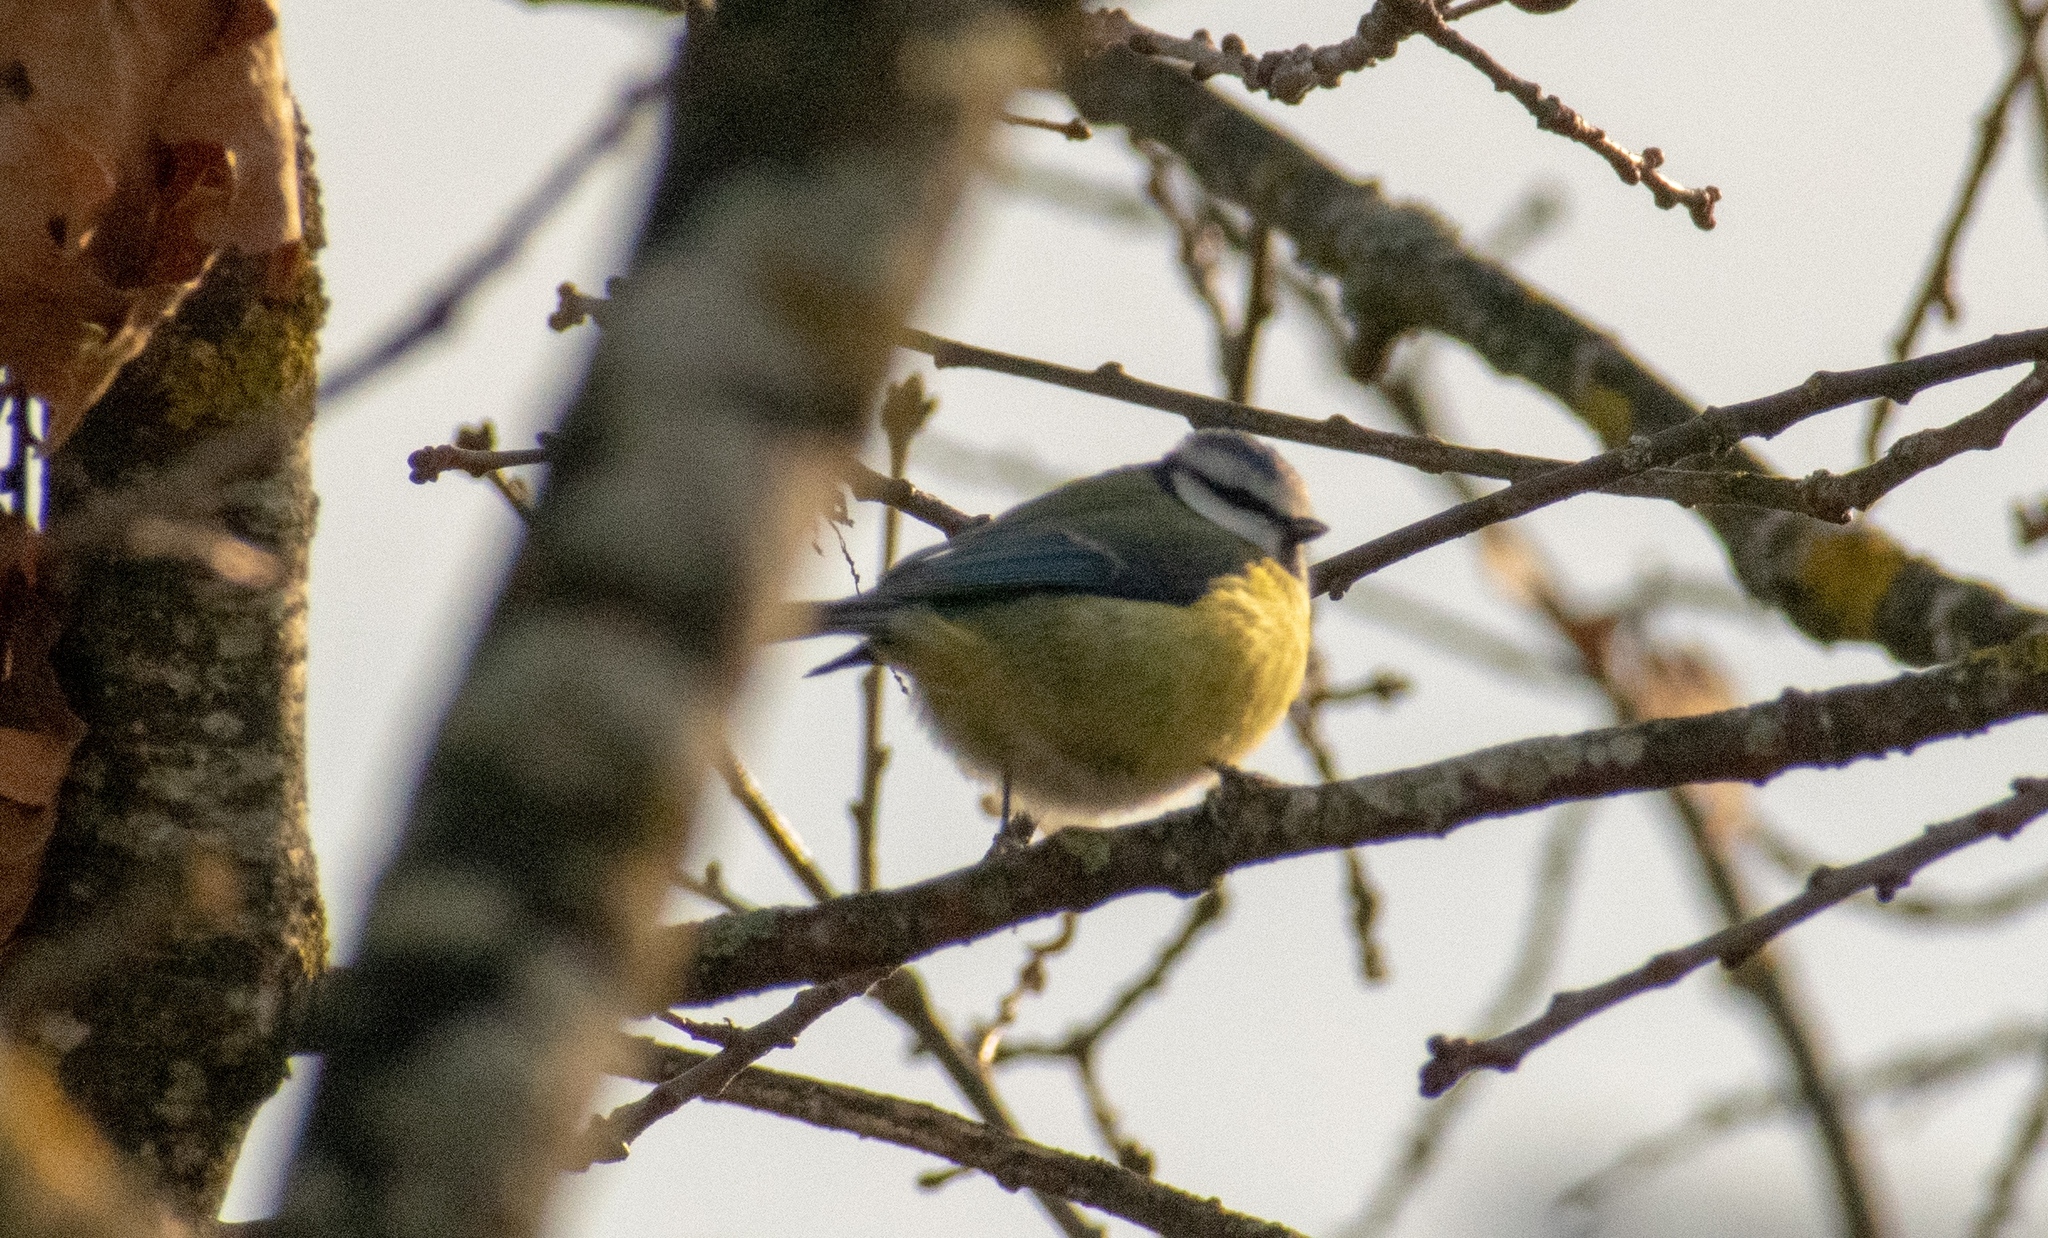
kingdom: Animalia
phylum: Chordata
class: Aves
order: Passeriformes
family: Paridae
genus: Cyanistes
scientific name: Cyanistes caeruleus
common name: Eurasian blue tit
